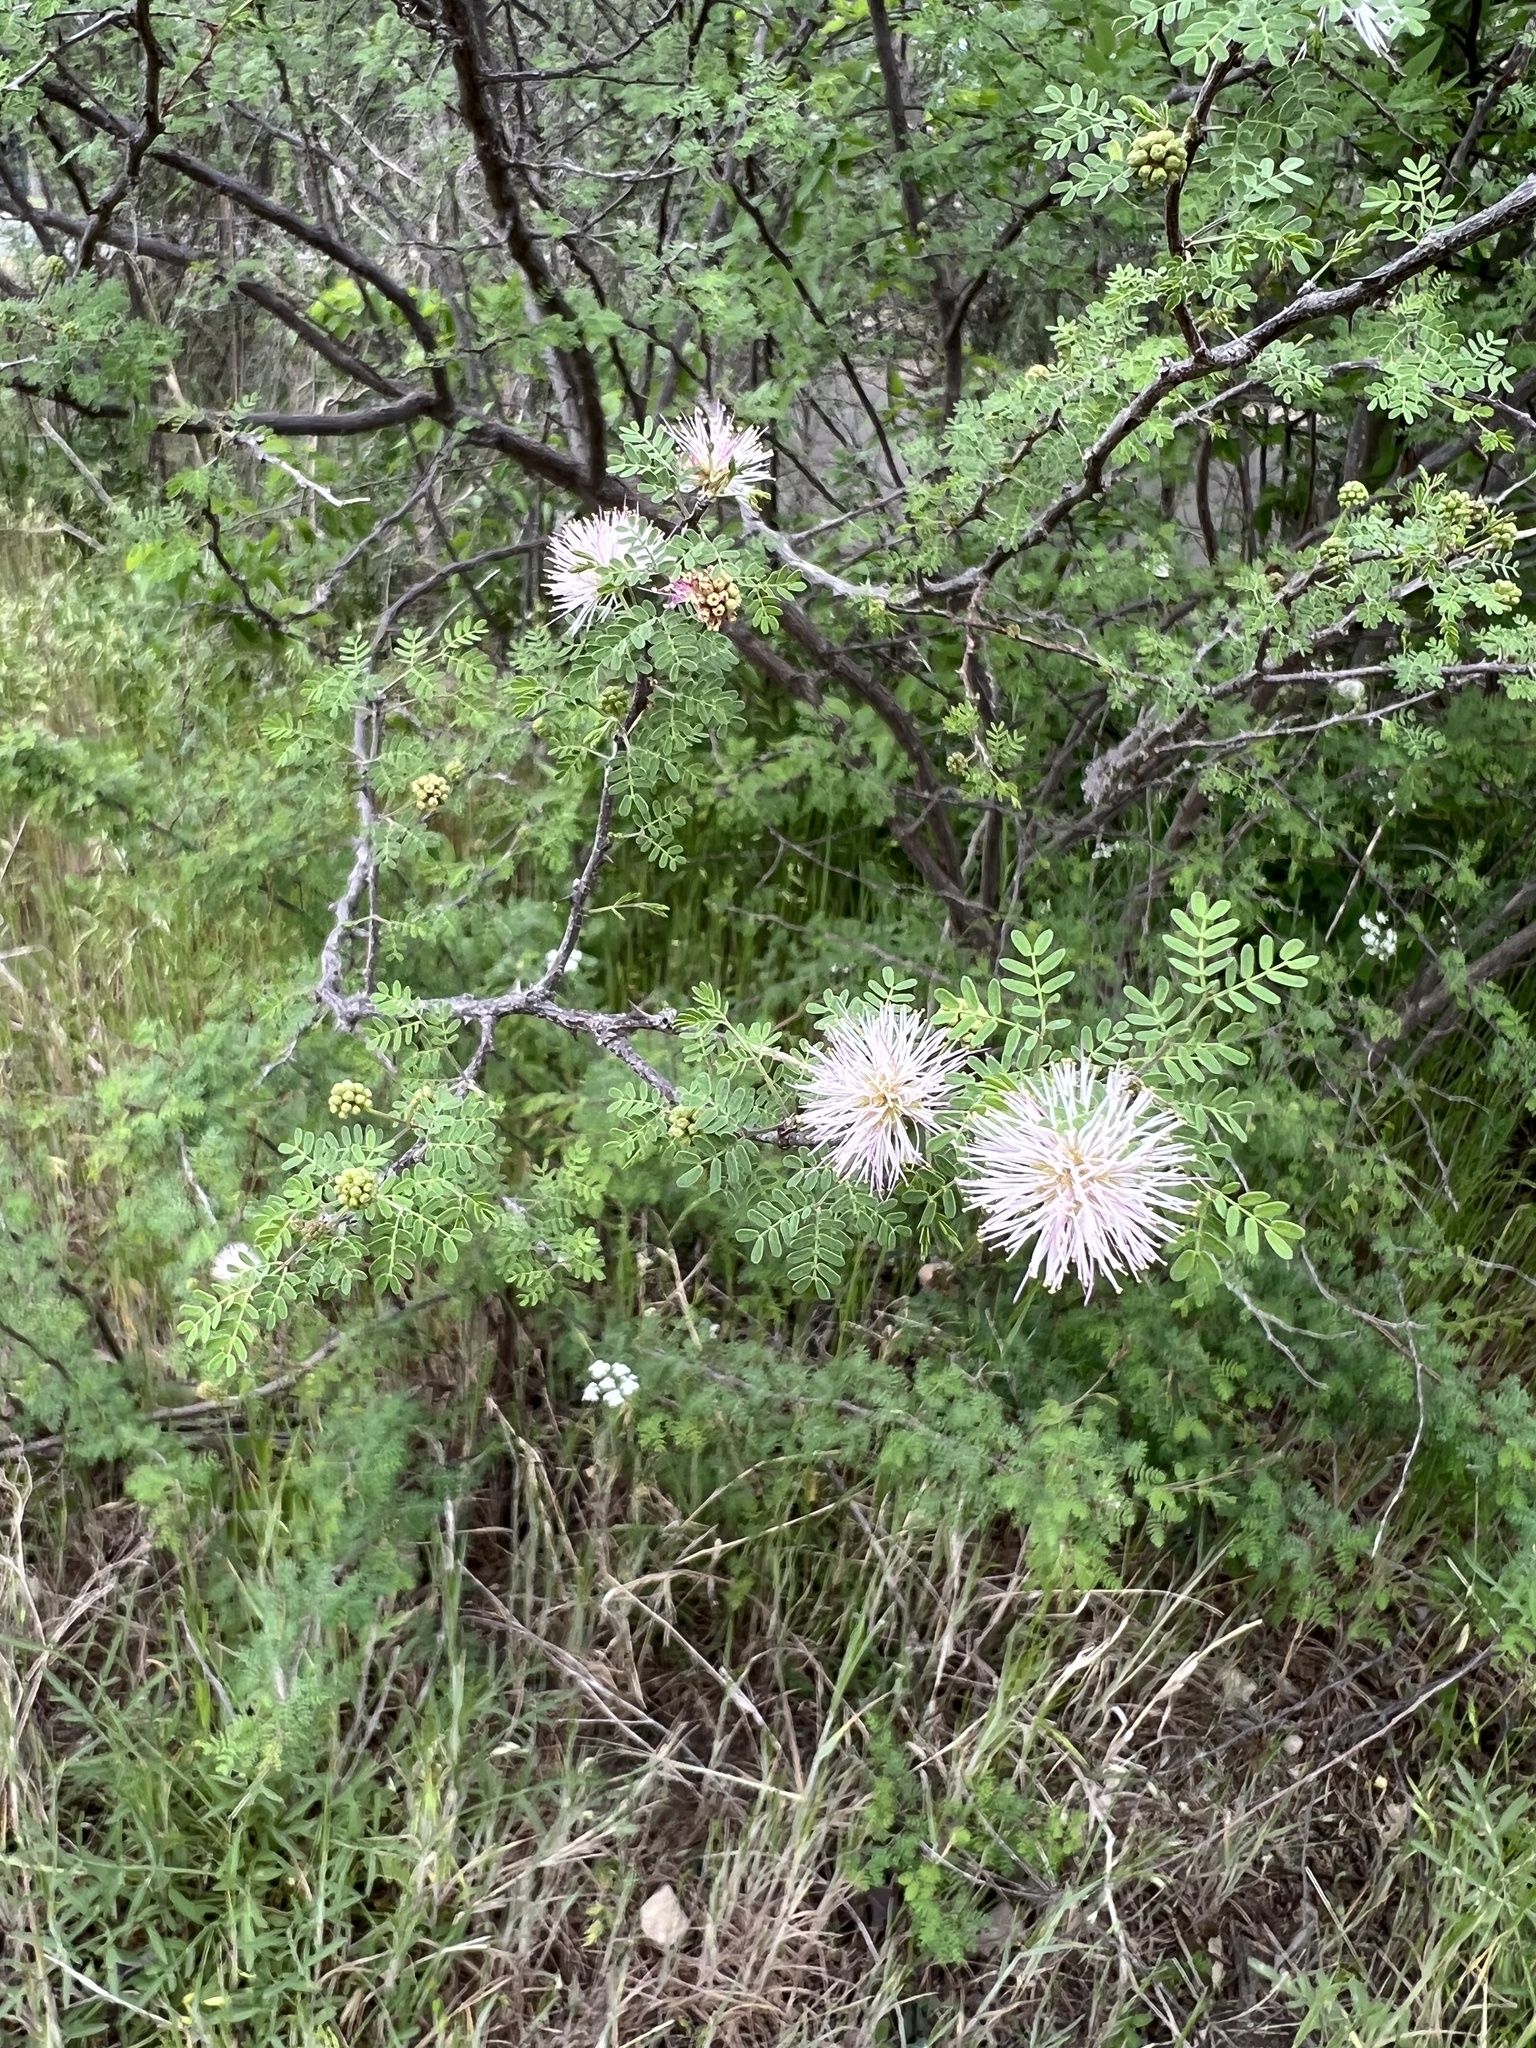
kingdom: Plantae
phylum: Tracheophyta
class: Magnoliopsida
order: Fabales
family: Fabaceae
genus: Mimosa
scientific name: Mimosa texana
